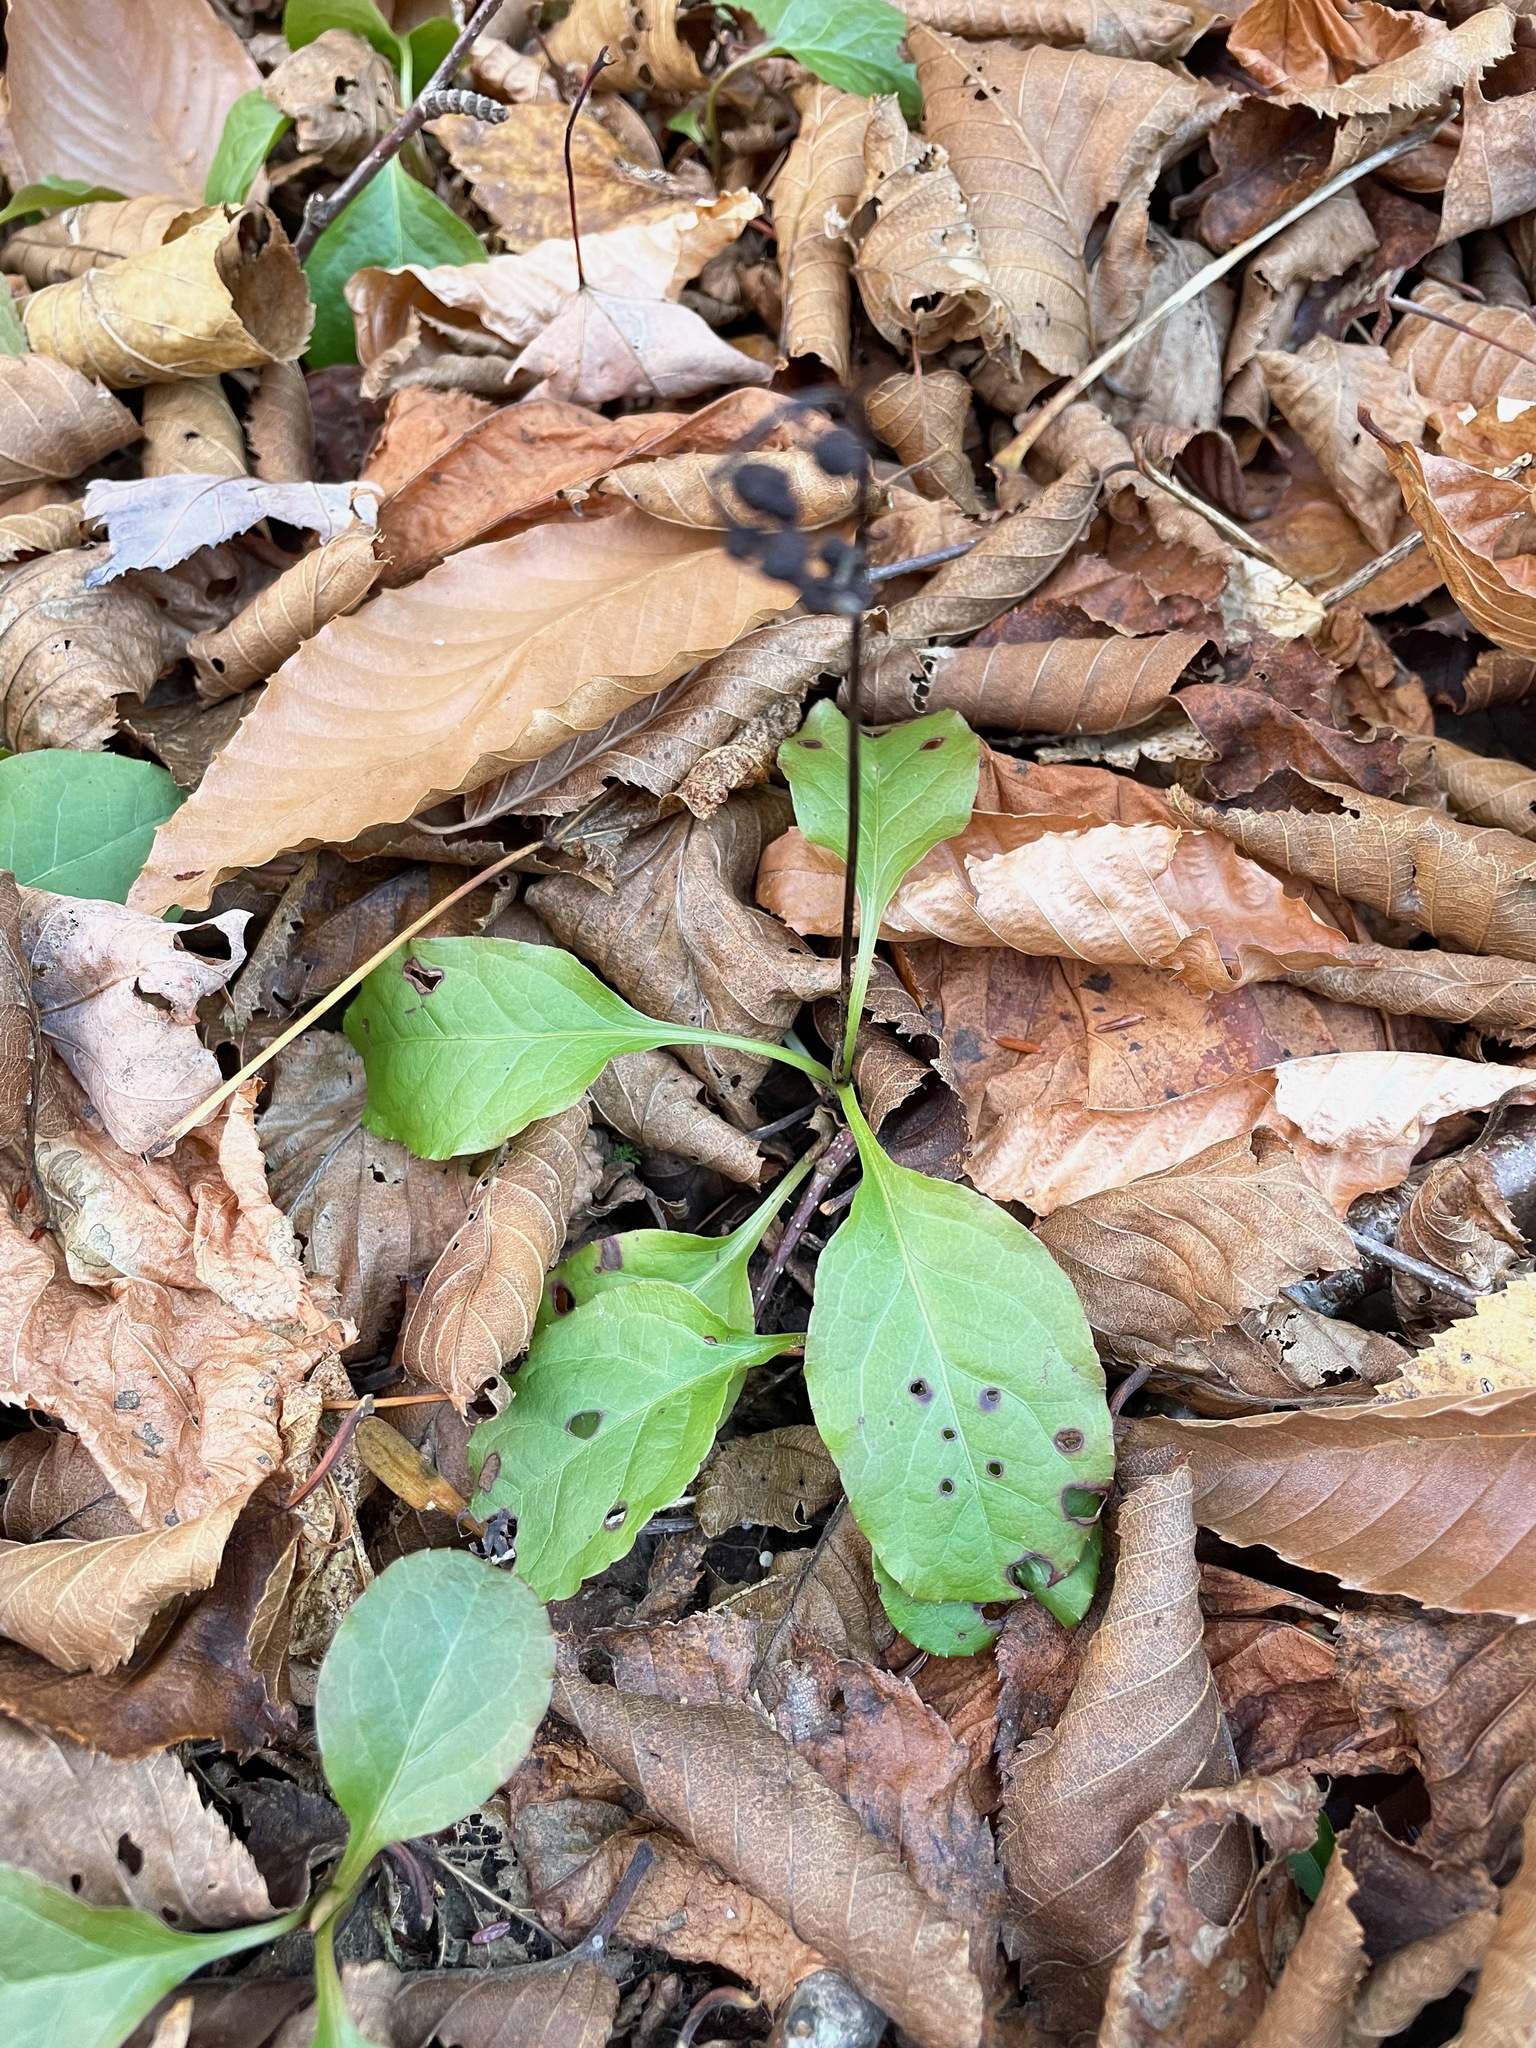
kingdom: Plantae
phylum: Tracheophyta
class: Magnoliopsida
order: Ericales
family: Ericaceae
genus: Pyrola
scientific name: Pyrola elliptica
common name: Shinleaf
